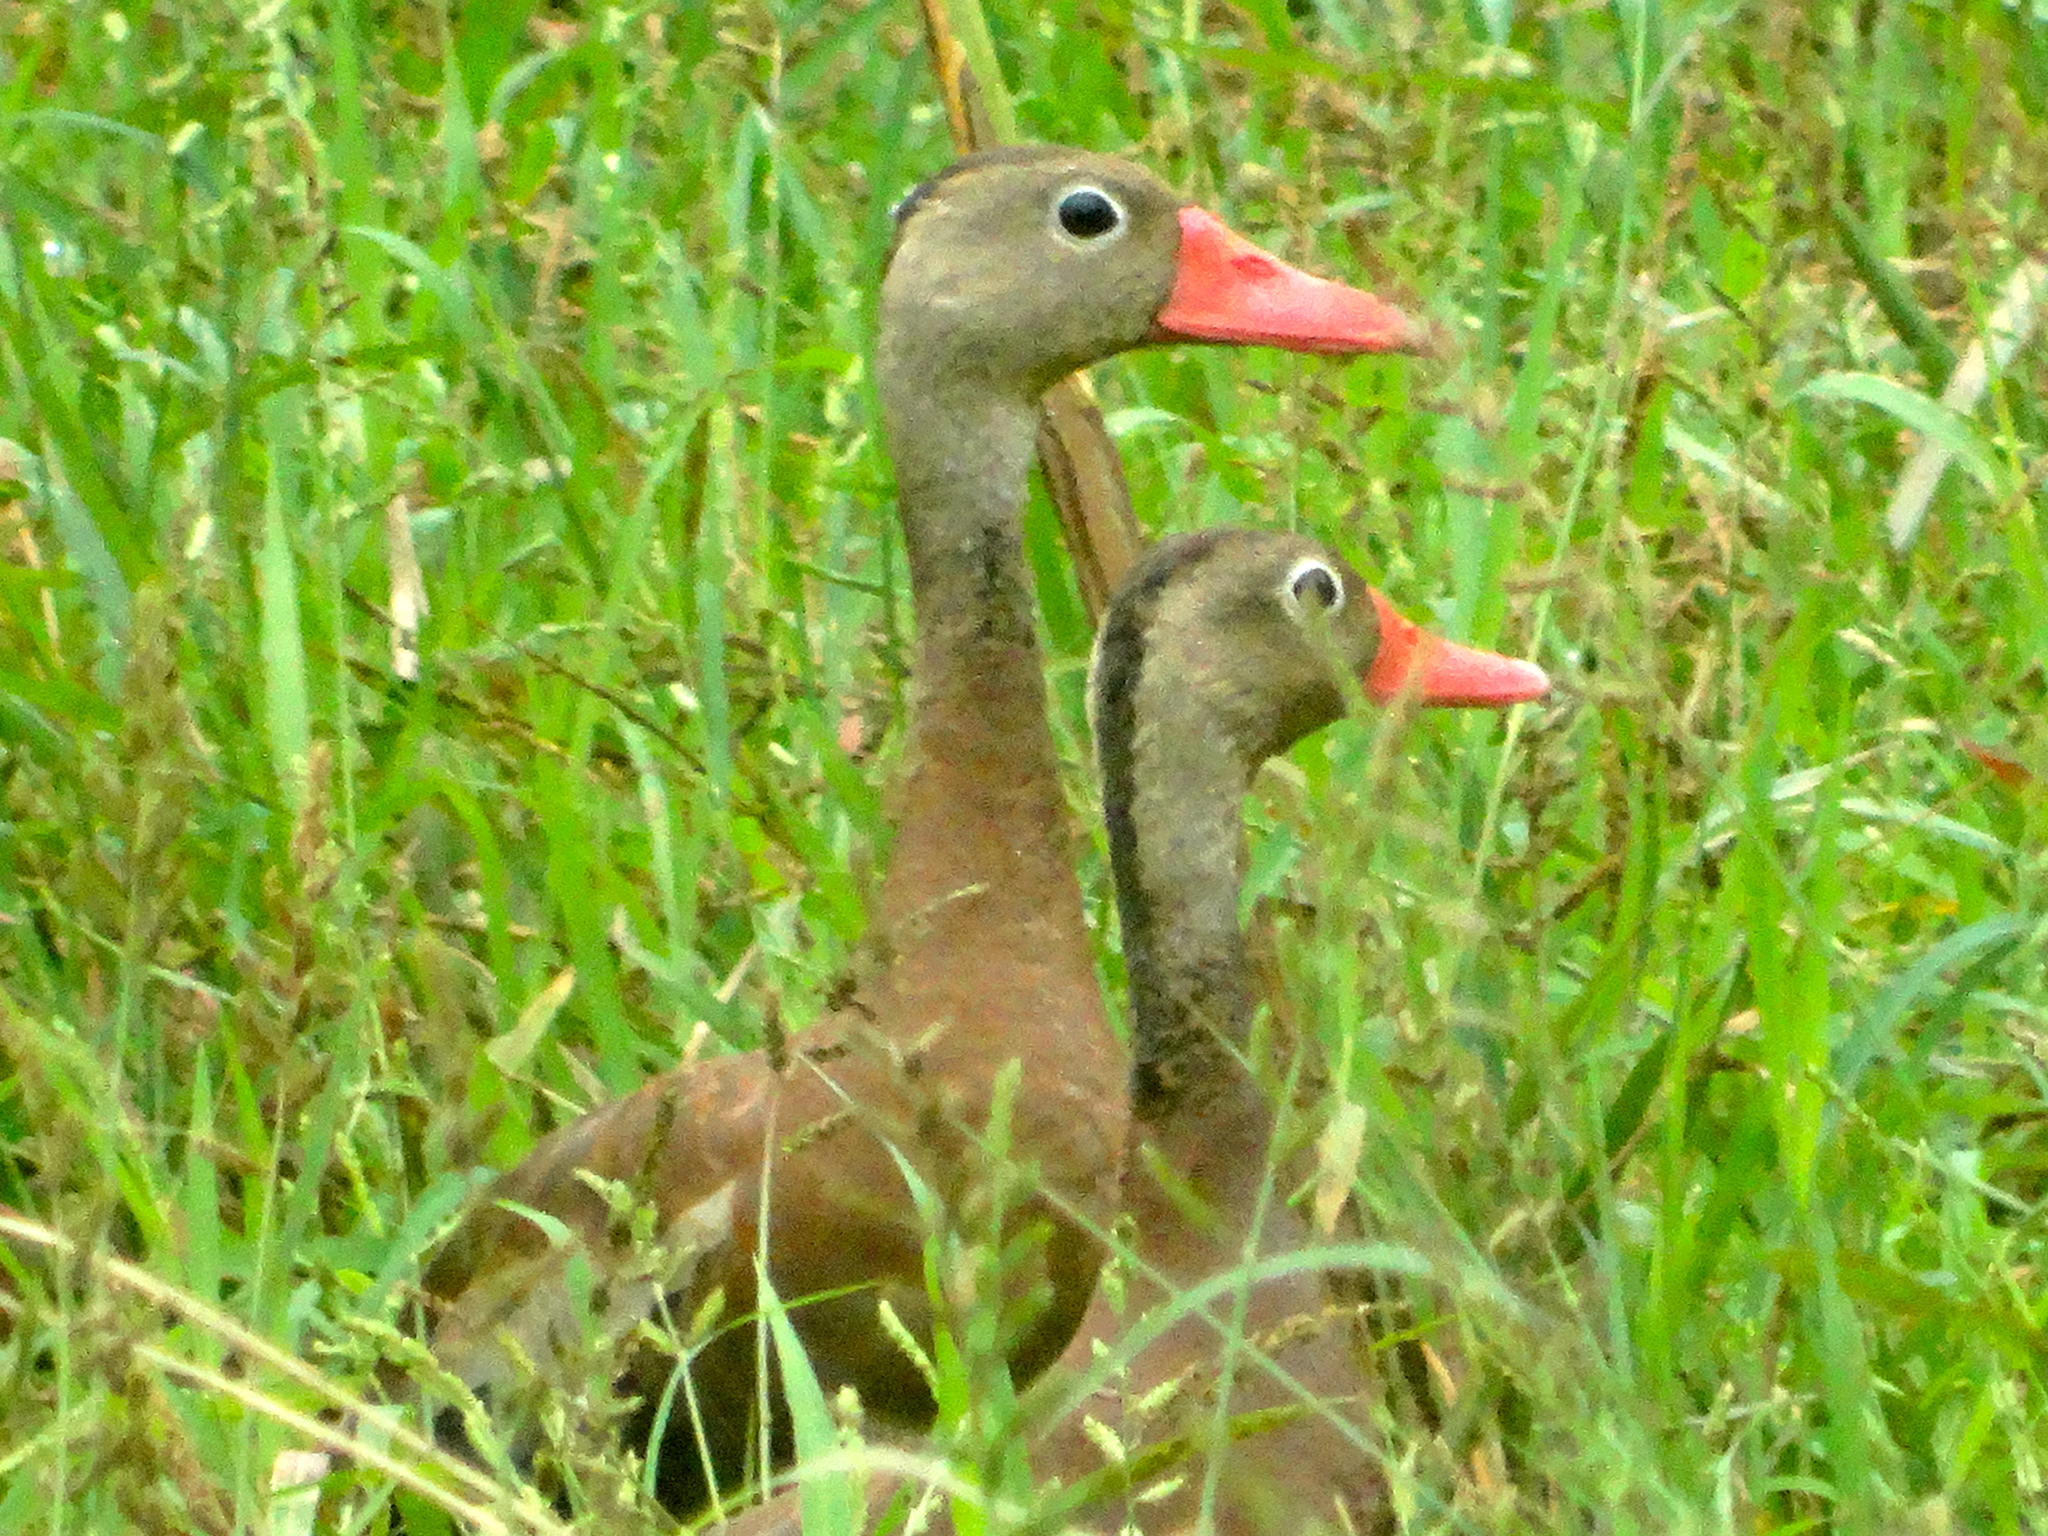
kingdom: Animalia
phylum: Chordata
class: Aves
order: Anseriformes
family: Anatidae
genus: Dendrocygna
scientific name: Dendrocygna autumnalis
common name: Black-bellied whistling duck
